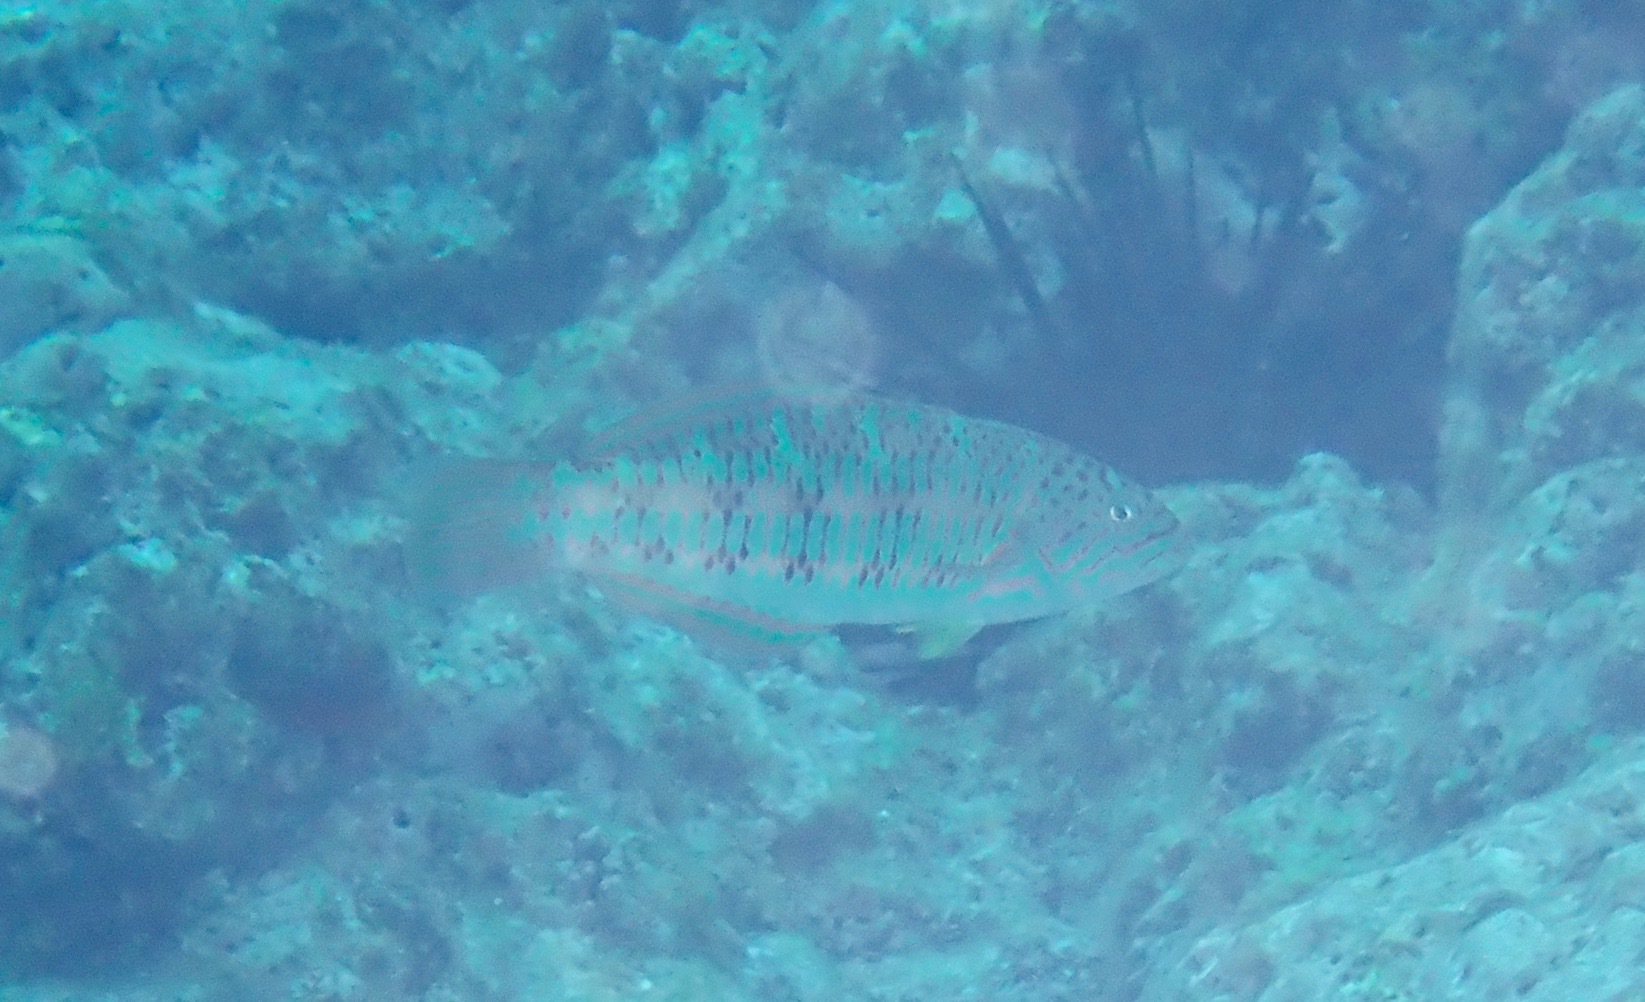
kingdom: Animalia
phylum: Chordata
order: Perciformes
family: Labridae
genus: Thalassoma
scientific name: Thalassoma trilobatum
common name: Christmas wrasse
